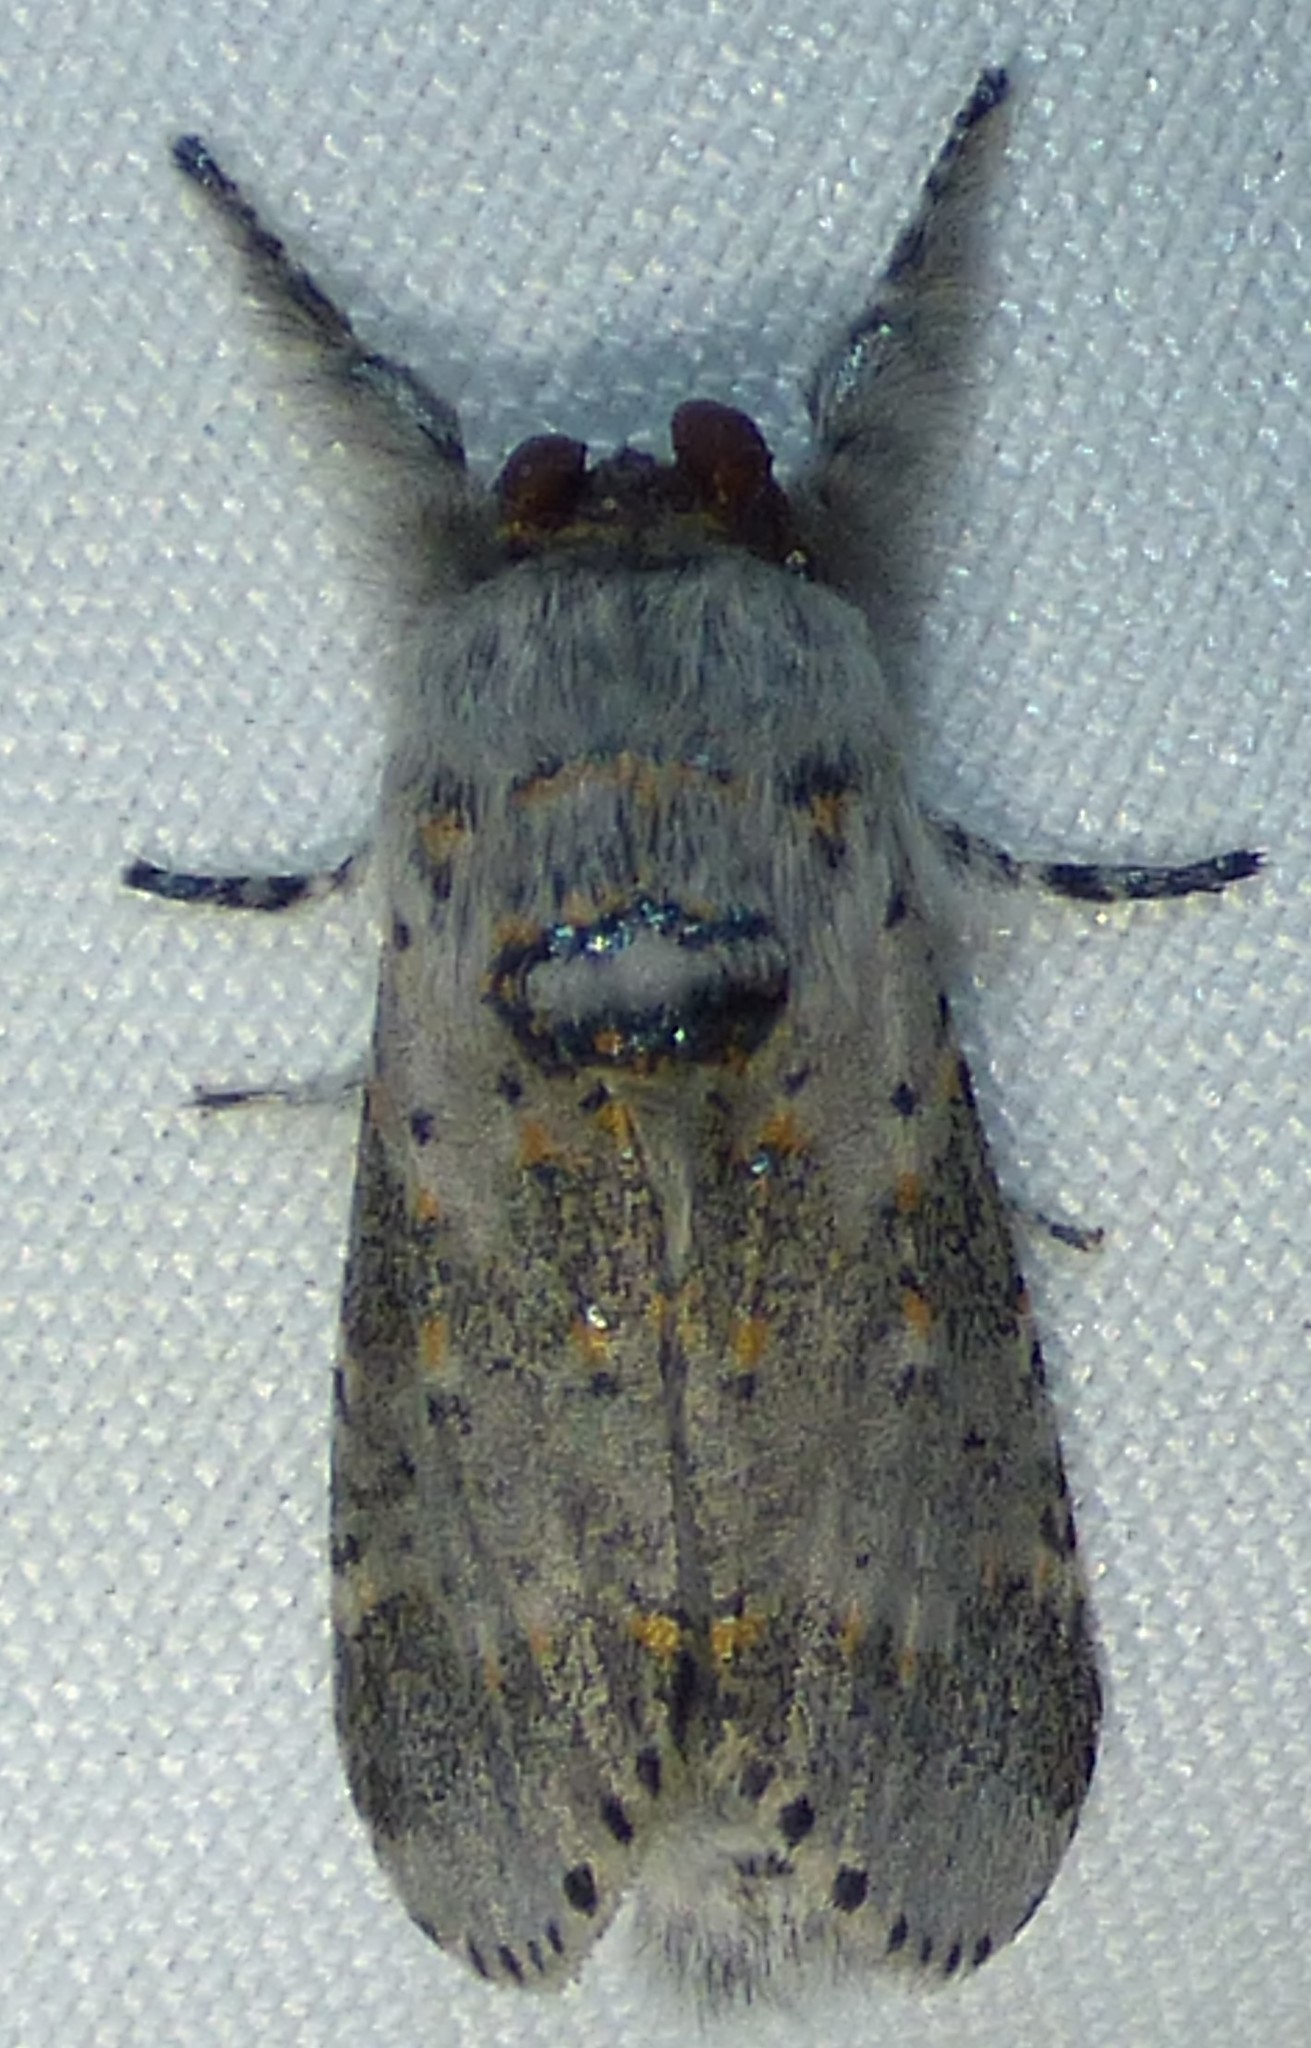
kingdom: Animalia
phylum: Arthropoda
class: Insecta
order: Lepidoptera
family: Notodontidae
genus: Furcula
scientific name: Furcula cinerea
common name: Gray furcula
